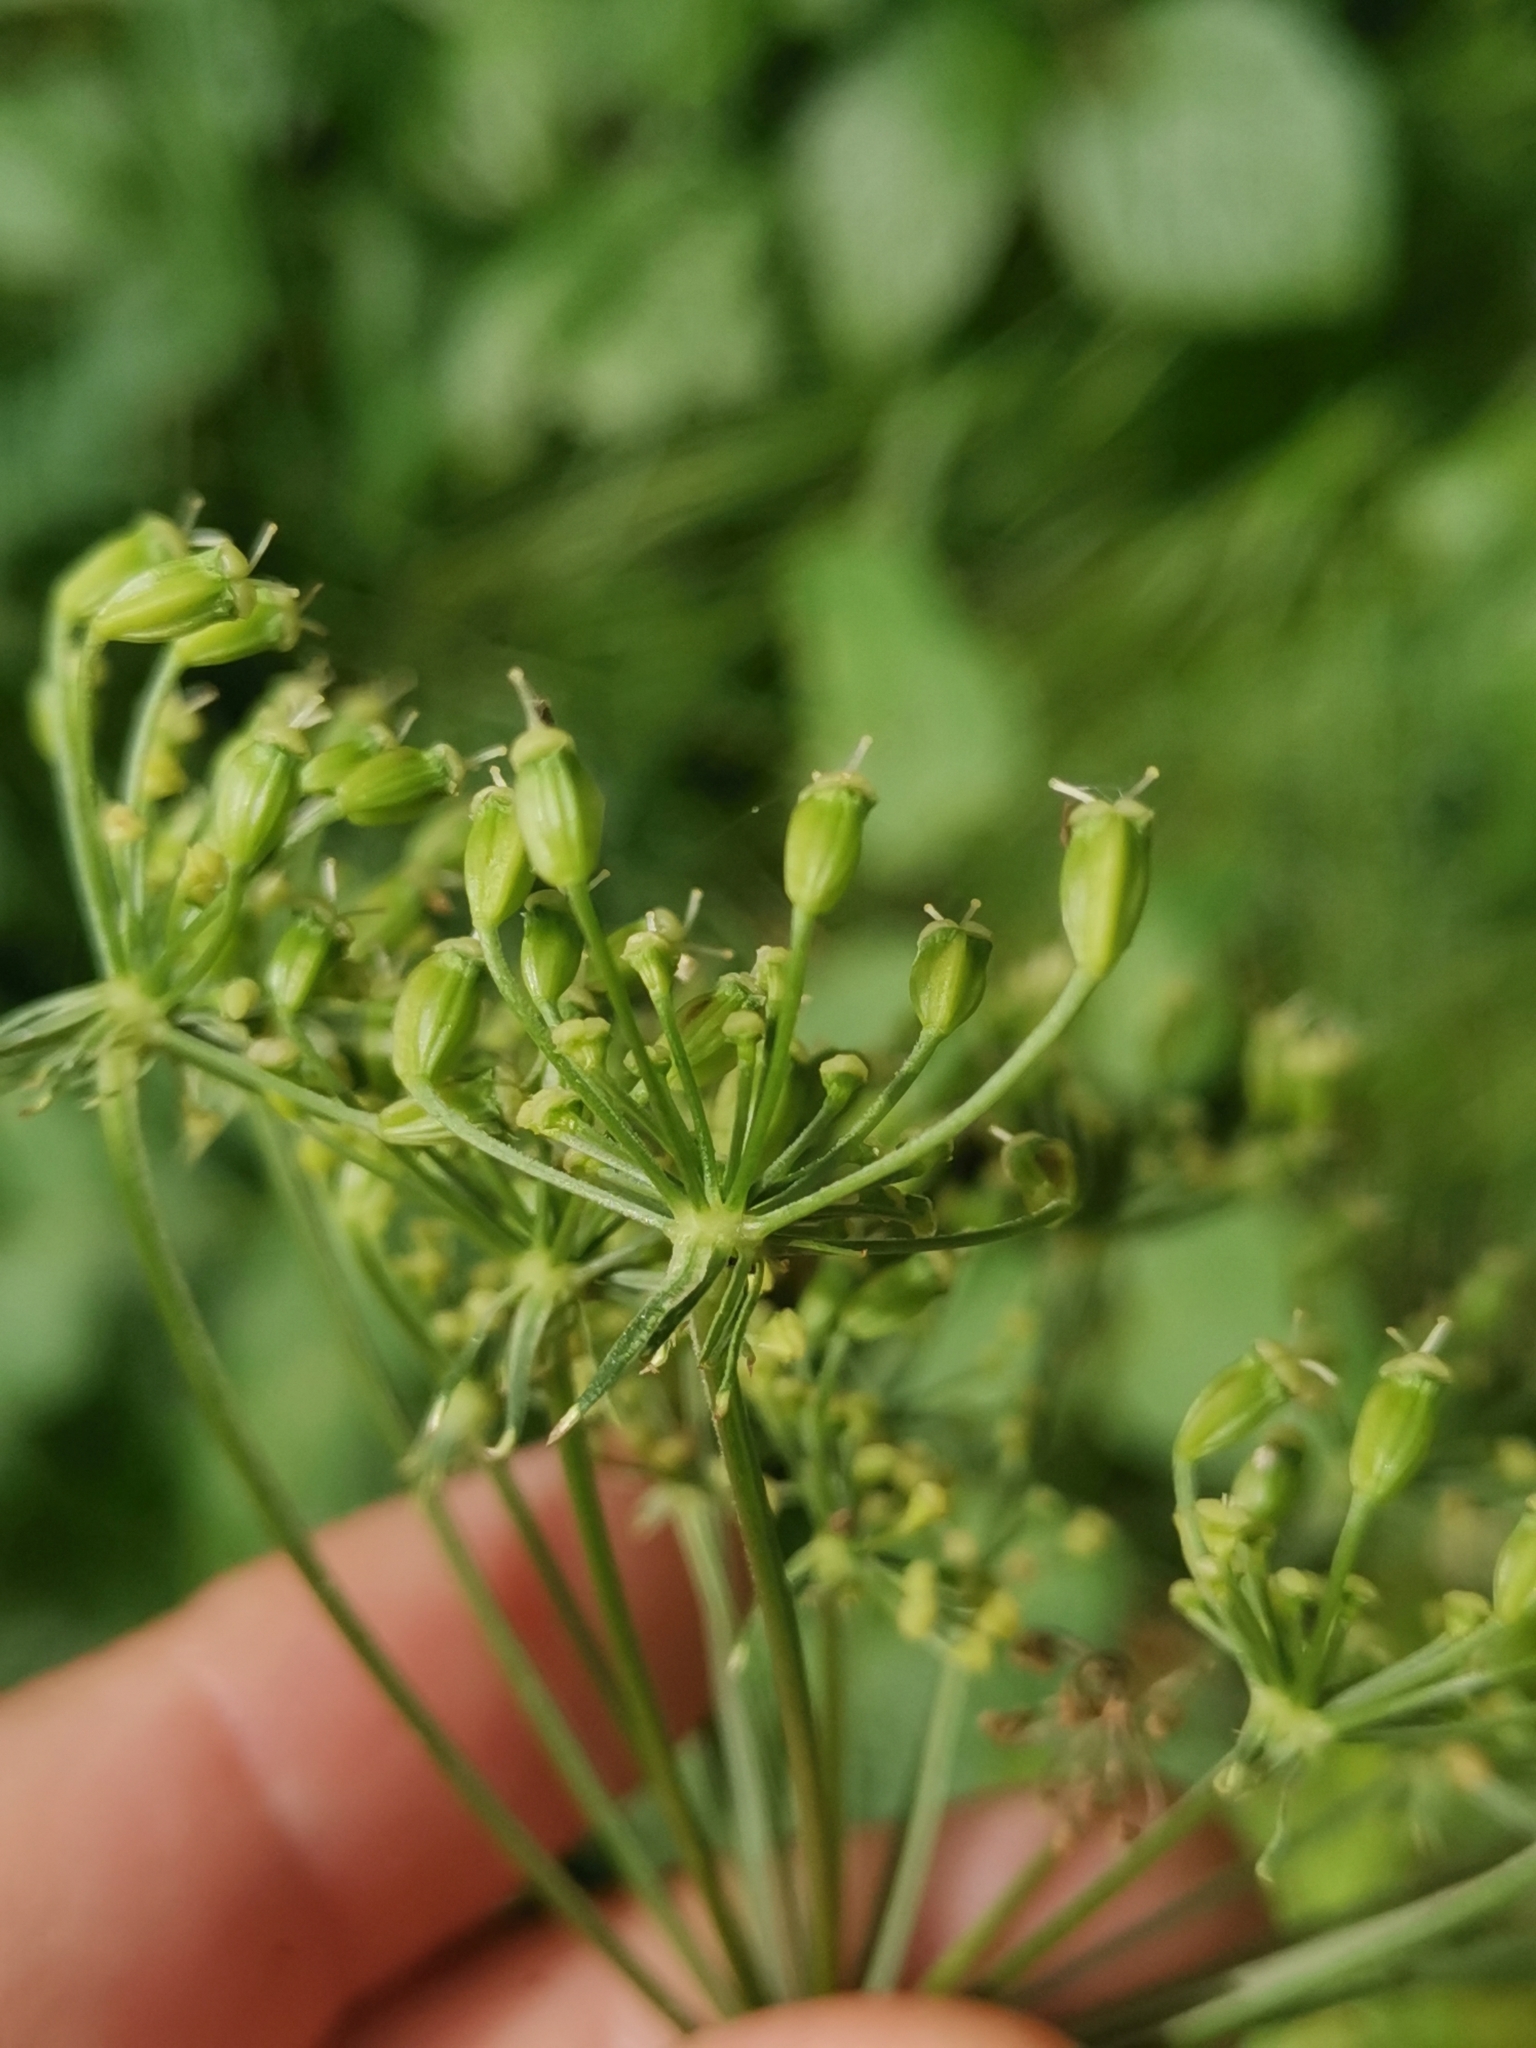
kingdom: Plantae
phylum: Tracheophyta
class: Magnoliopsida
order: Apiales
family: Apiaceae
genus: Peucedanum
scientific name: Peucedanum austriacum
